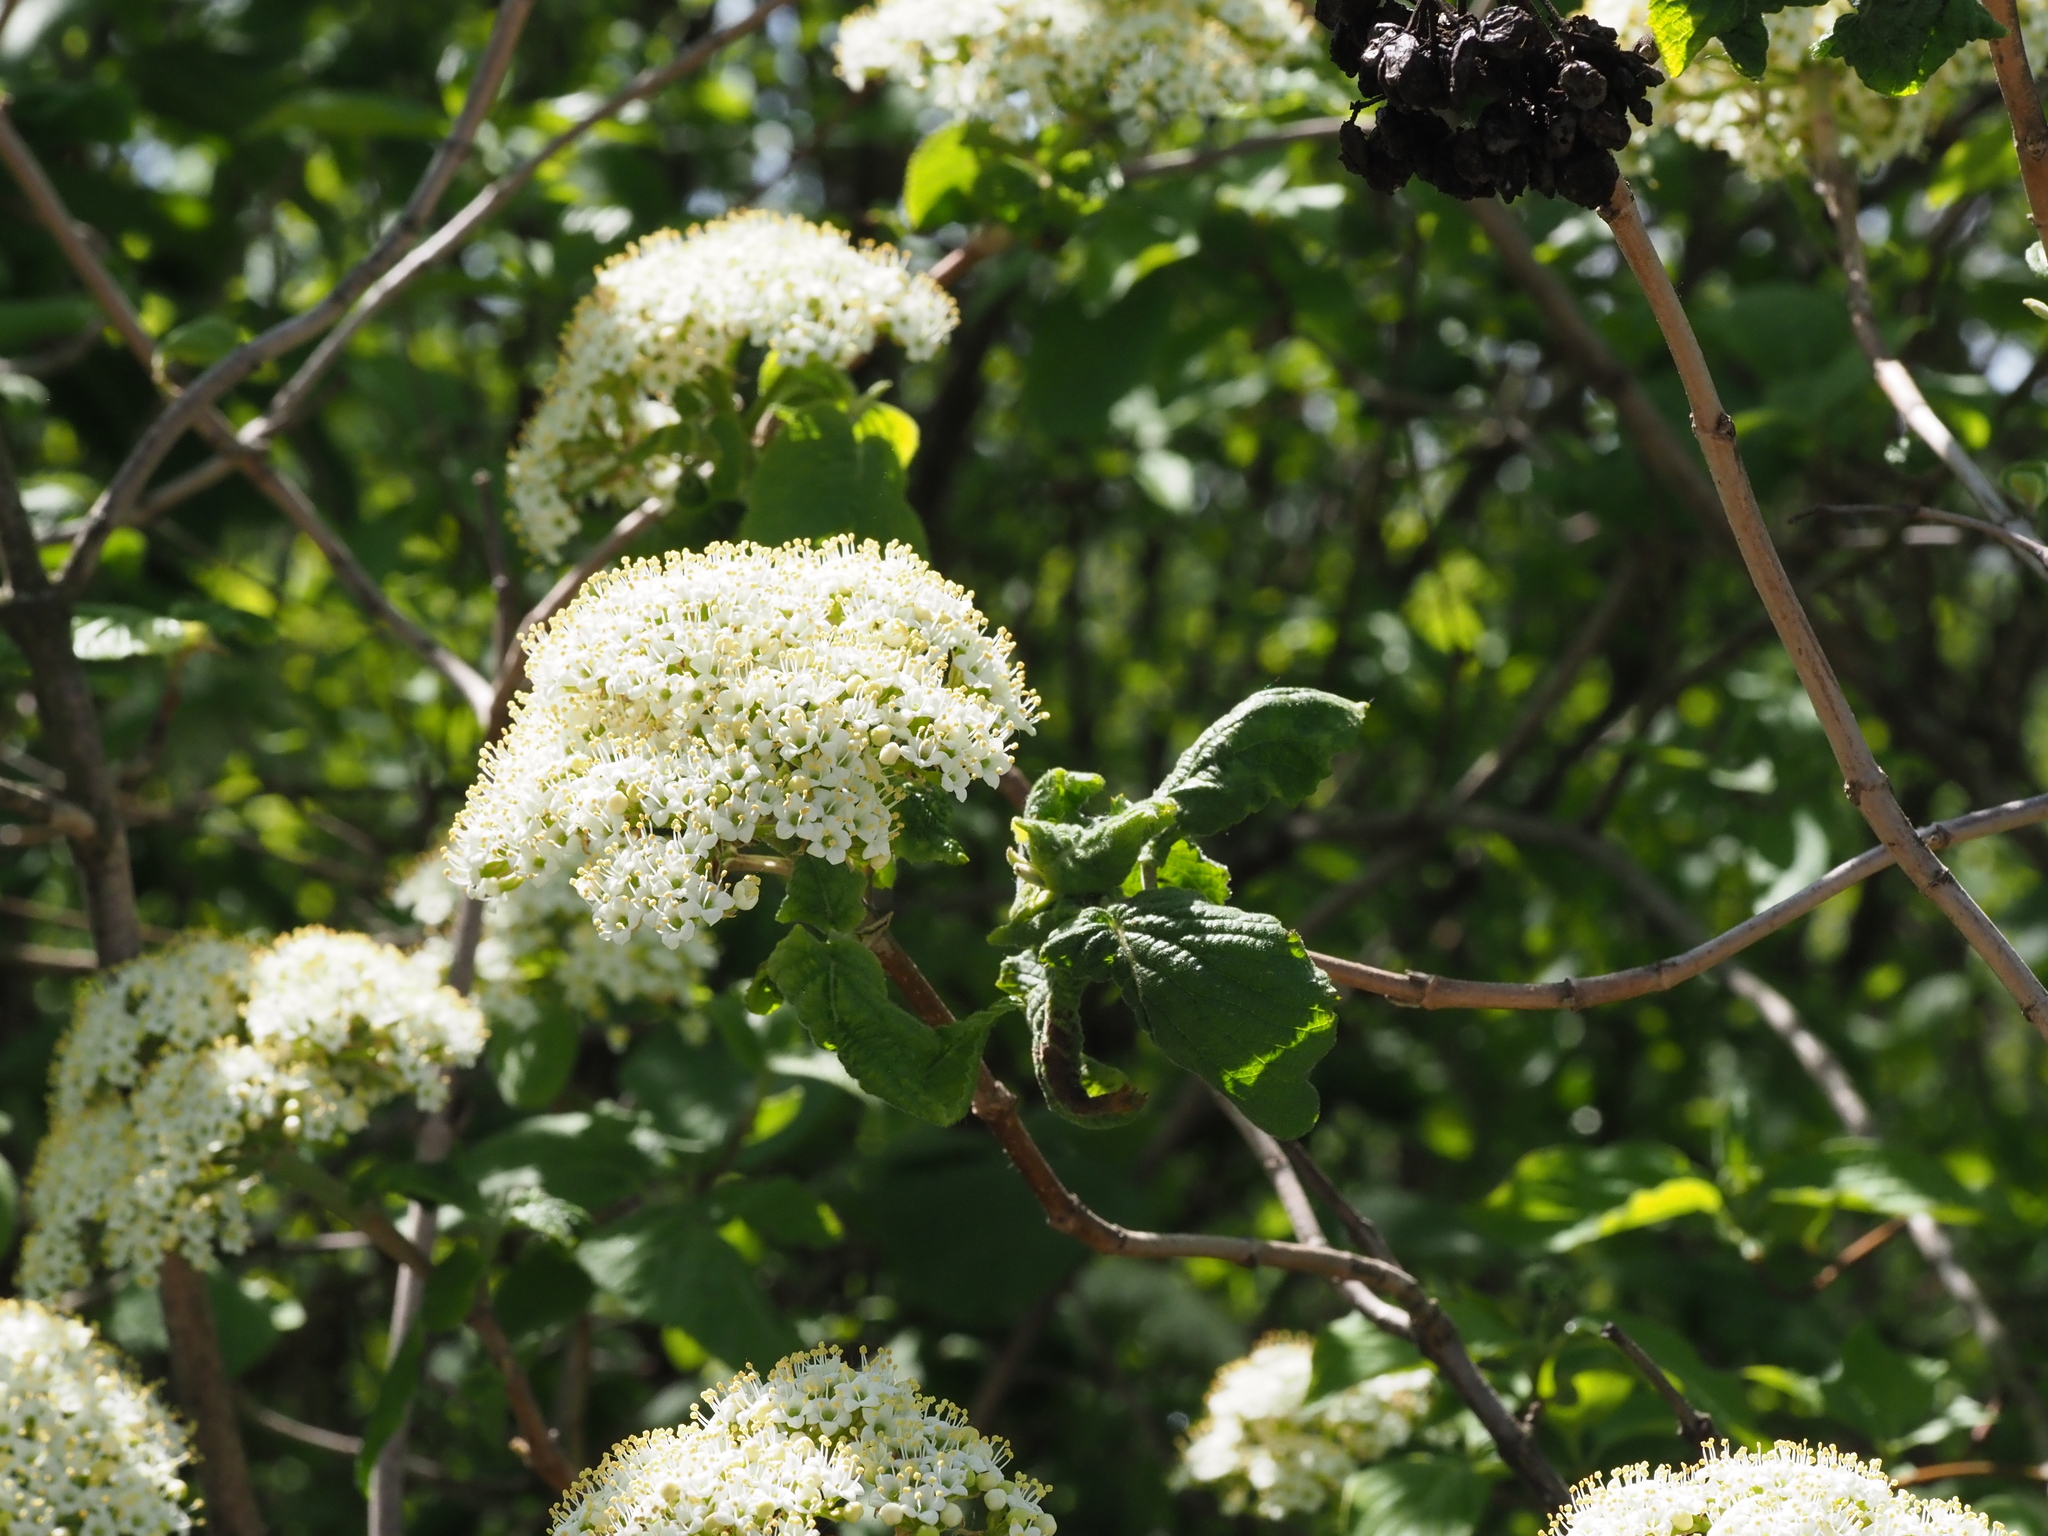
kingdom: Plantae
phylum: Tracheophyta
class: Magnoliopsida
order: Dipsacales
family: Viburnaceae
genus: Viburnum
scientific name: Viburnum lantana
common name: Wayfaring tree
